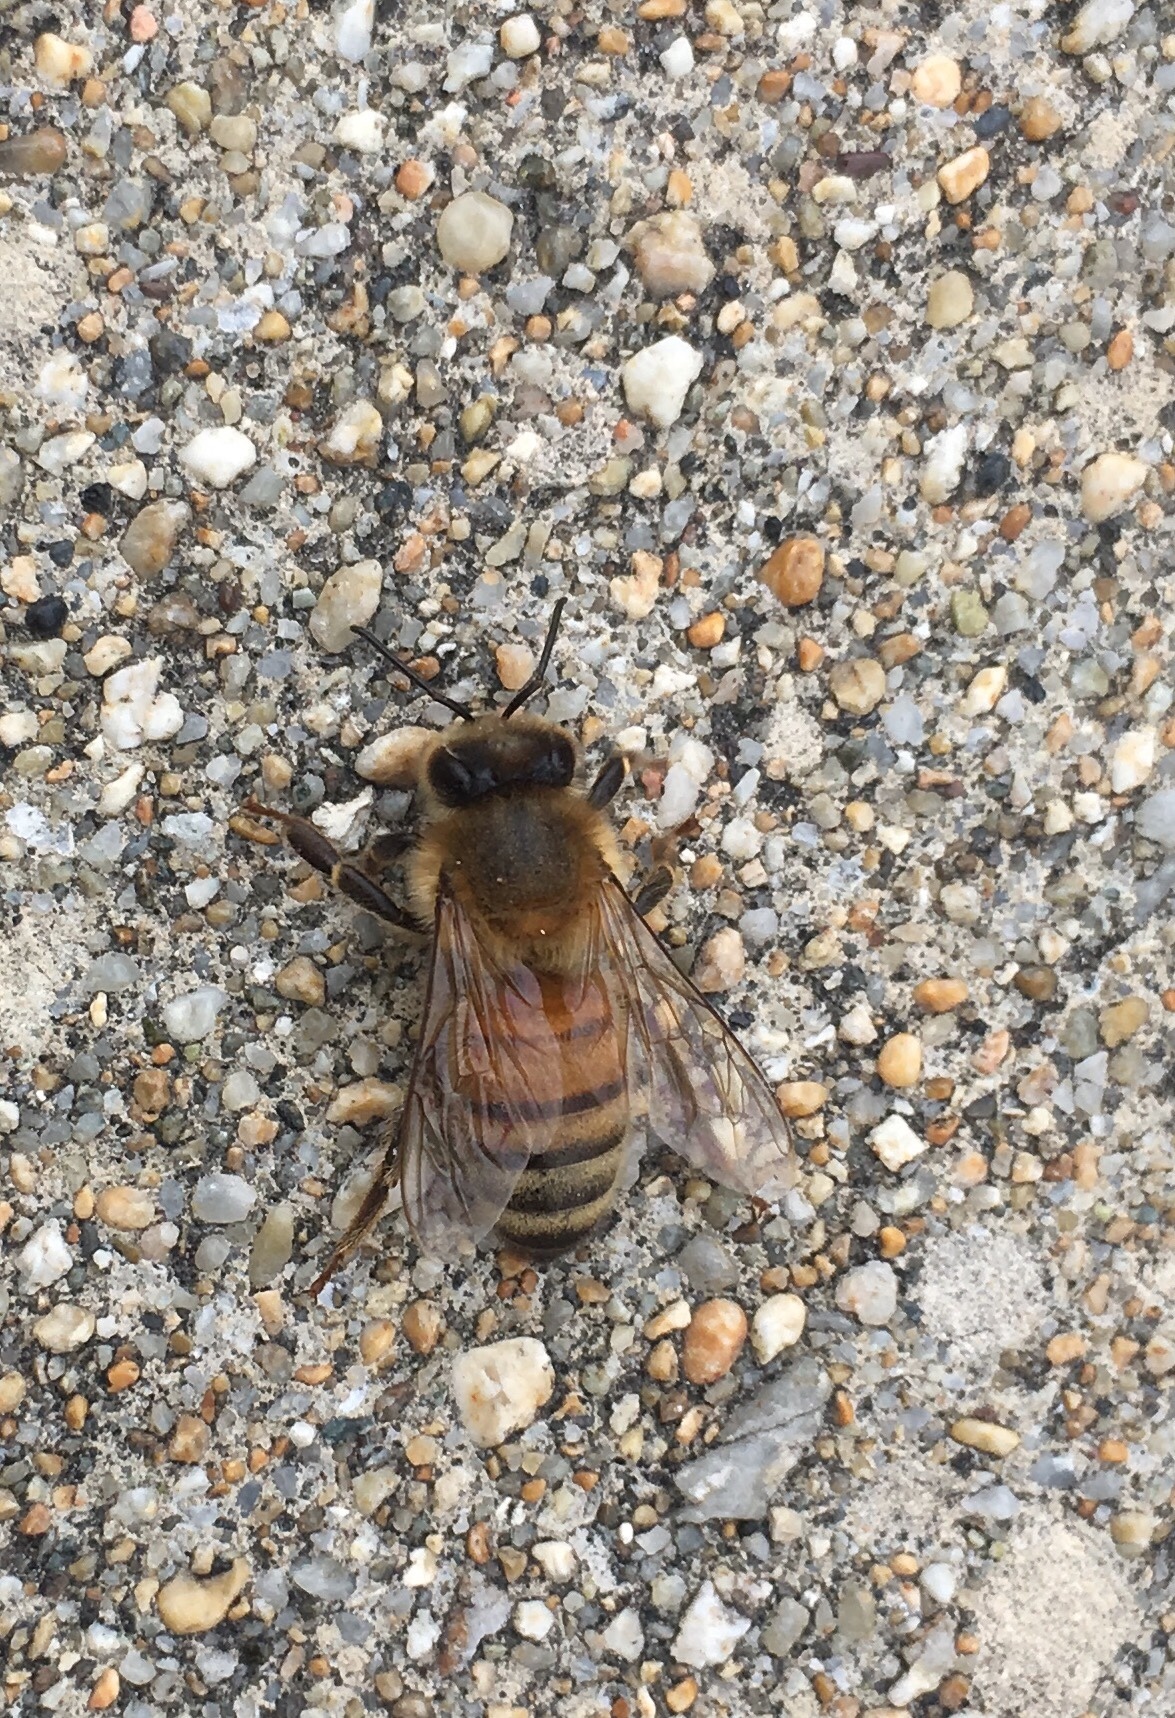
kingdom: Animalia
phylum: Arthropoda
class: Insecta
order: Hymenoptera
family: Apidae
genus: Apis
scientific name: Apis mellifera
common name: Honey bee
